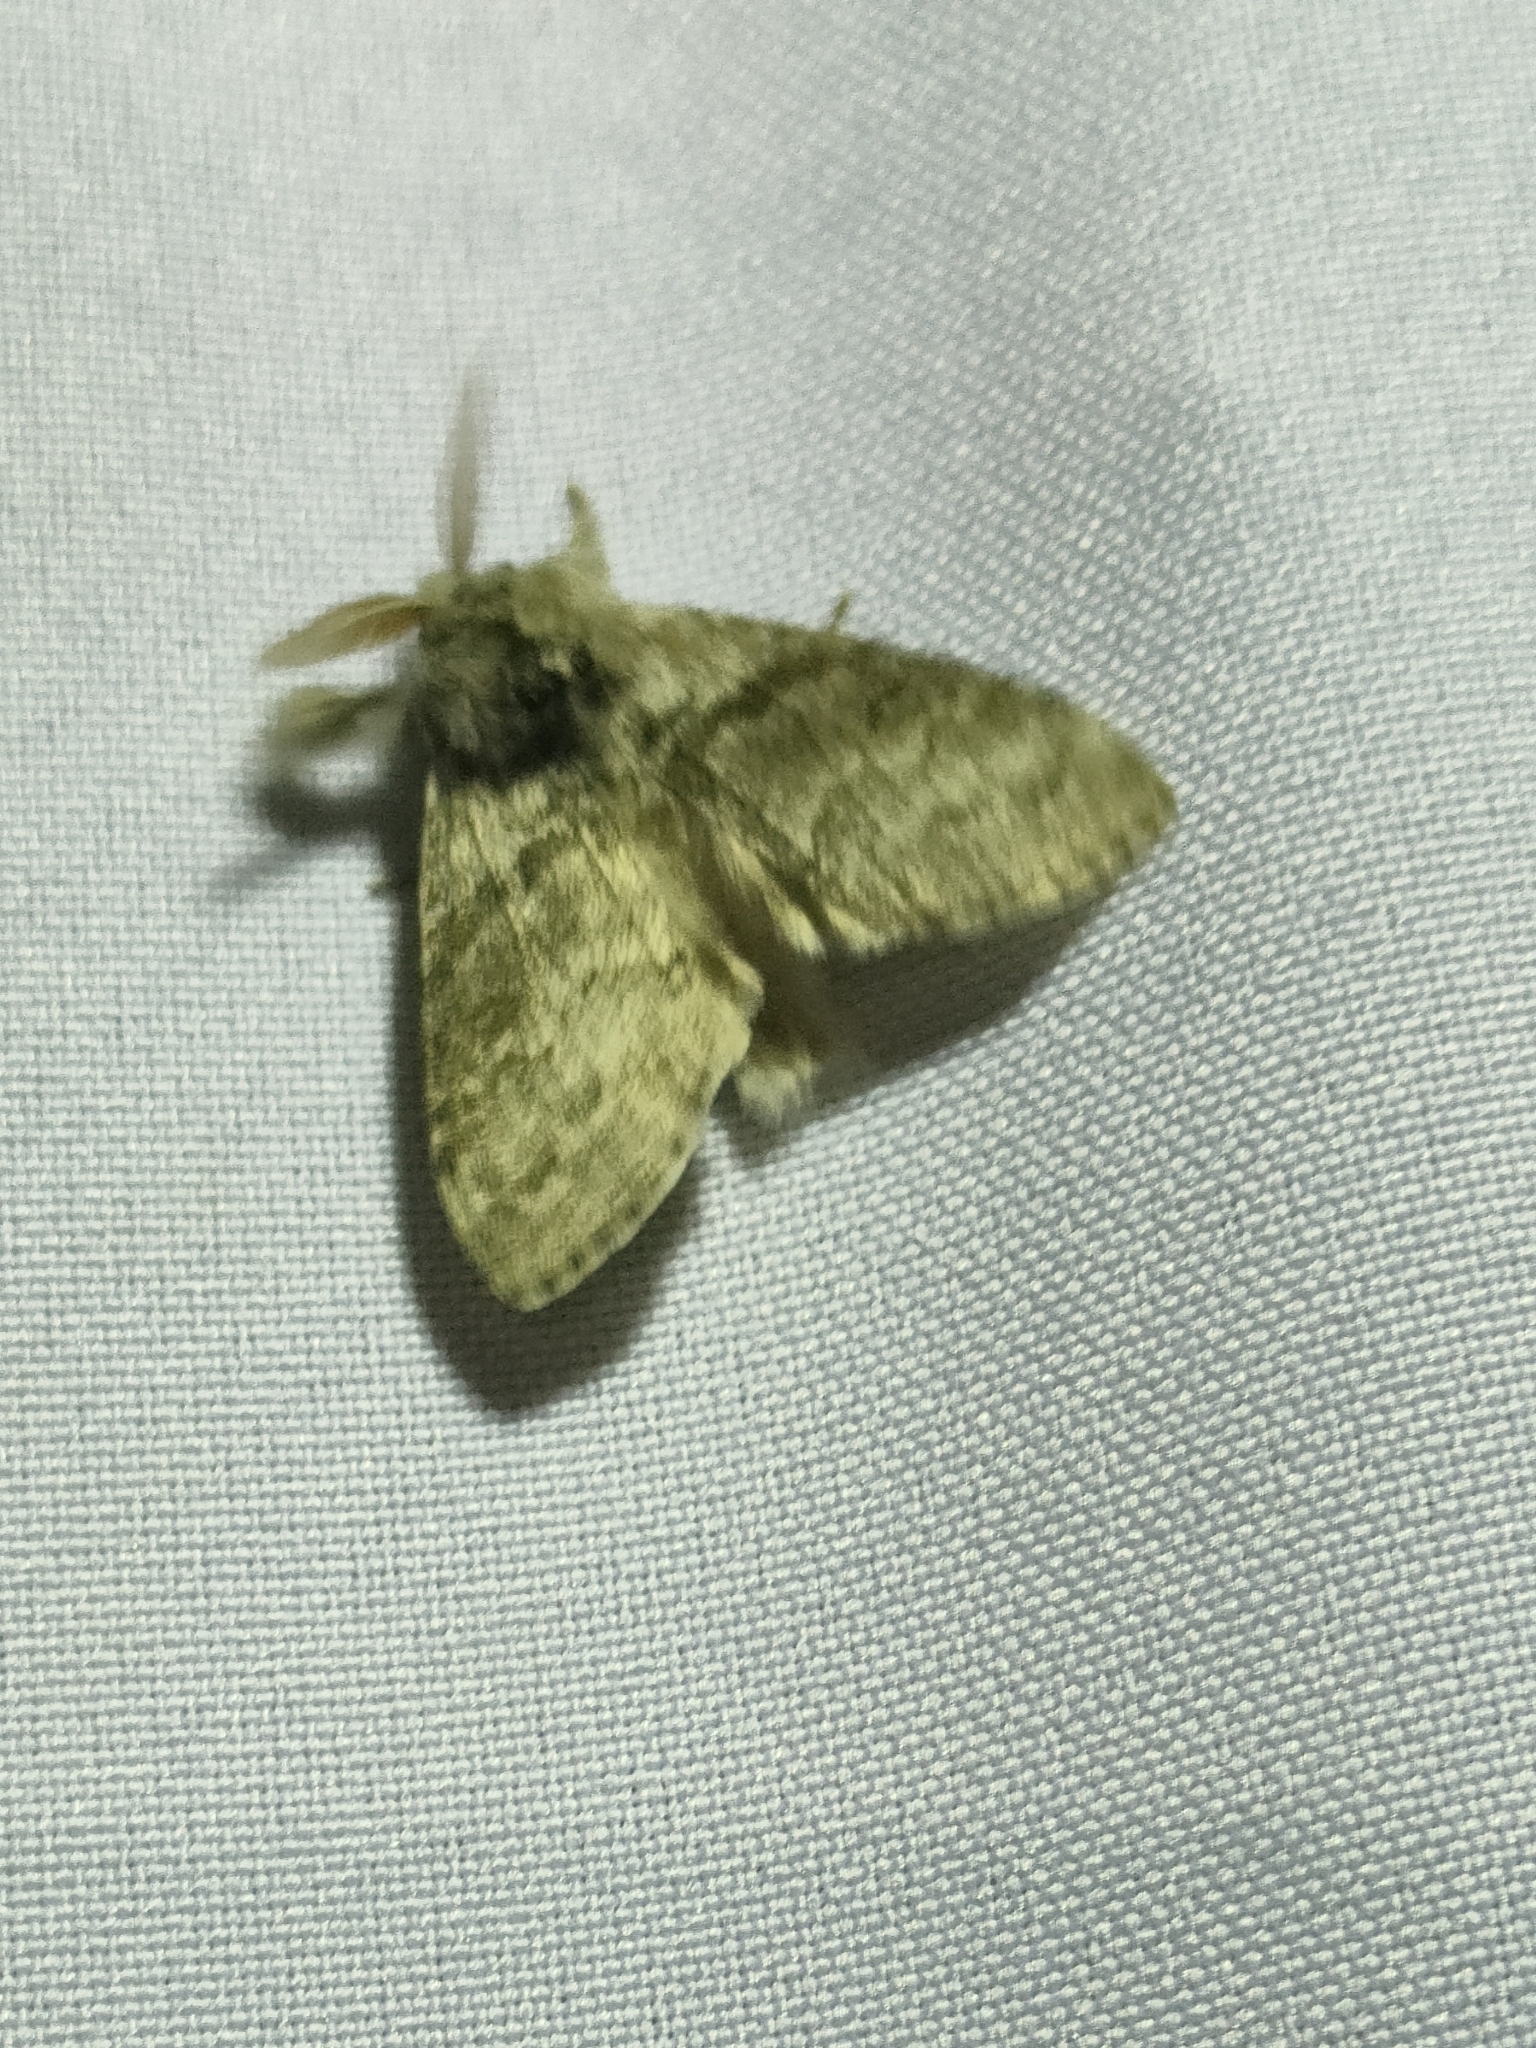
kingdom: Animalia
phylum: Arthropoda
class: Insecta
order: Lepidoptera
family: Erebidae
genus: Calliteara
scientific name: Calliteara pudibunda
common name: Pale tussock
